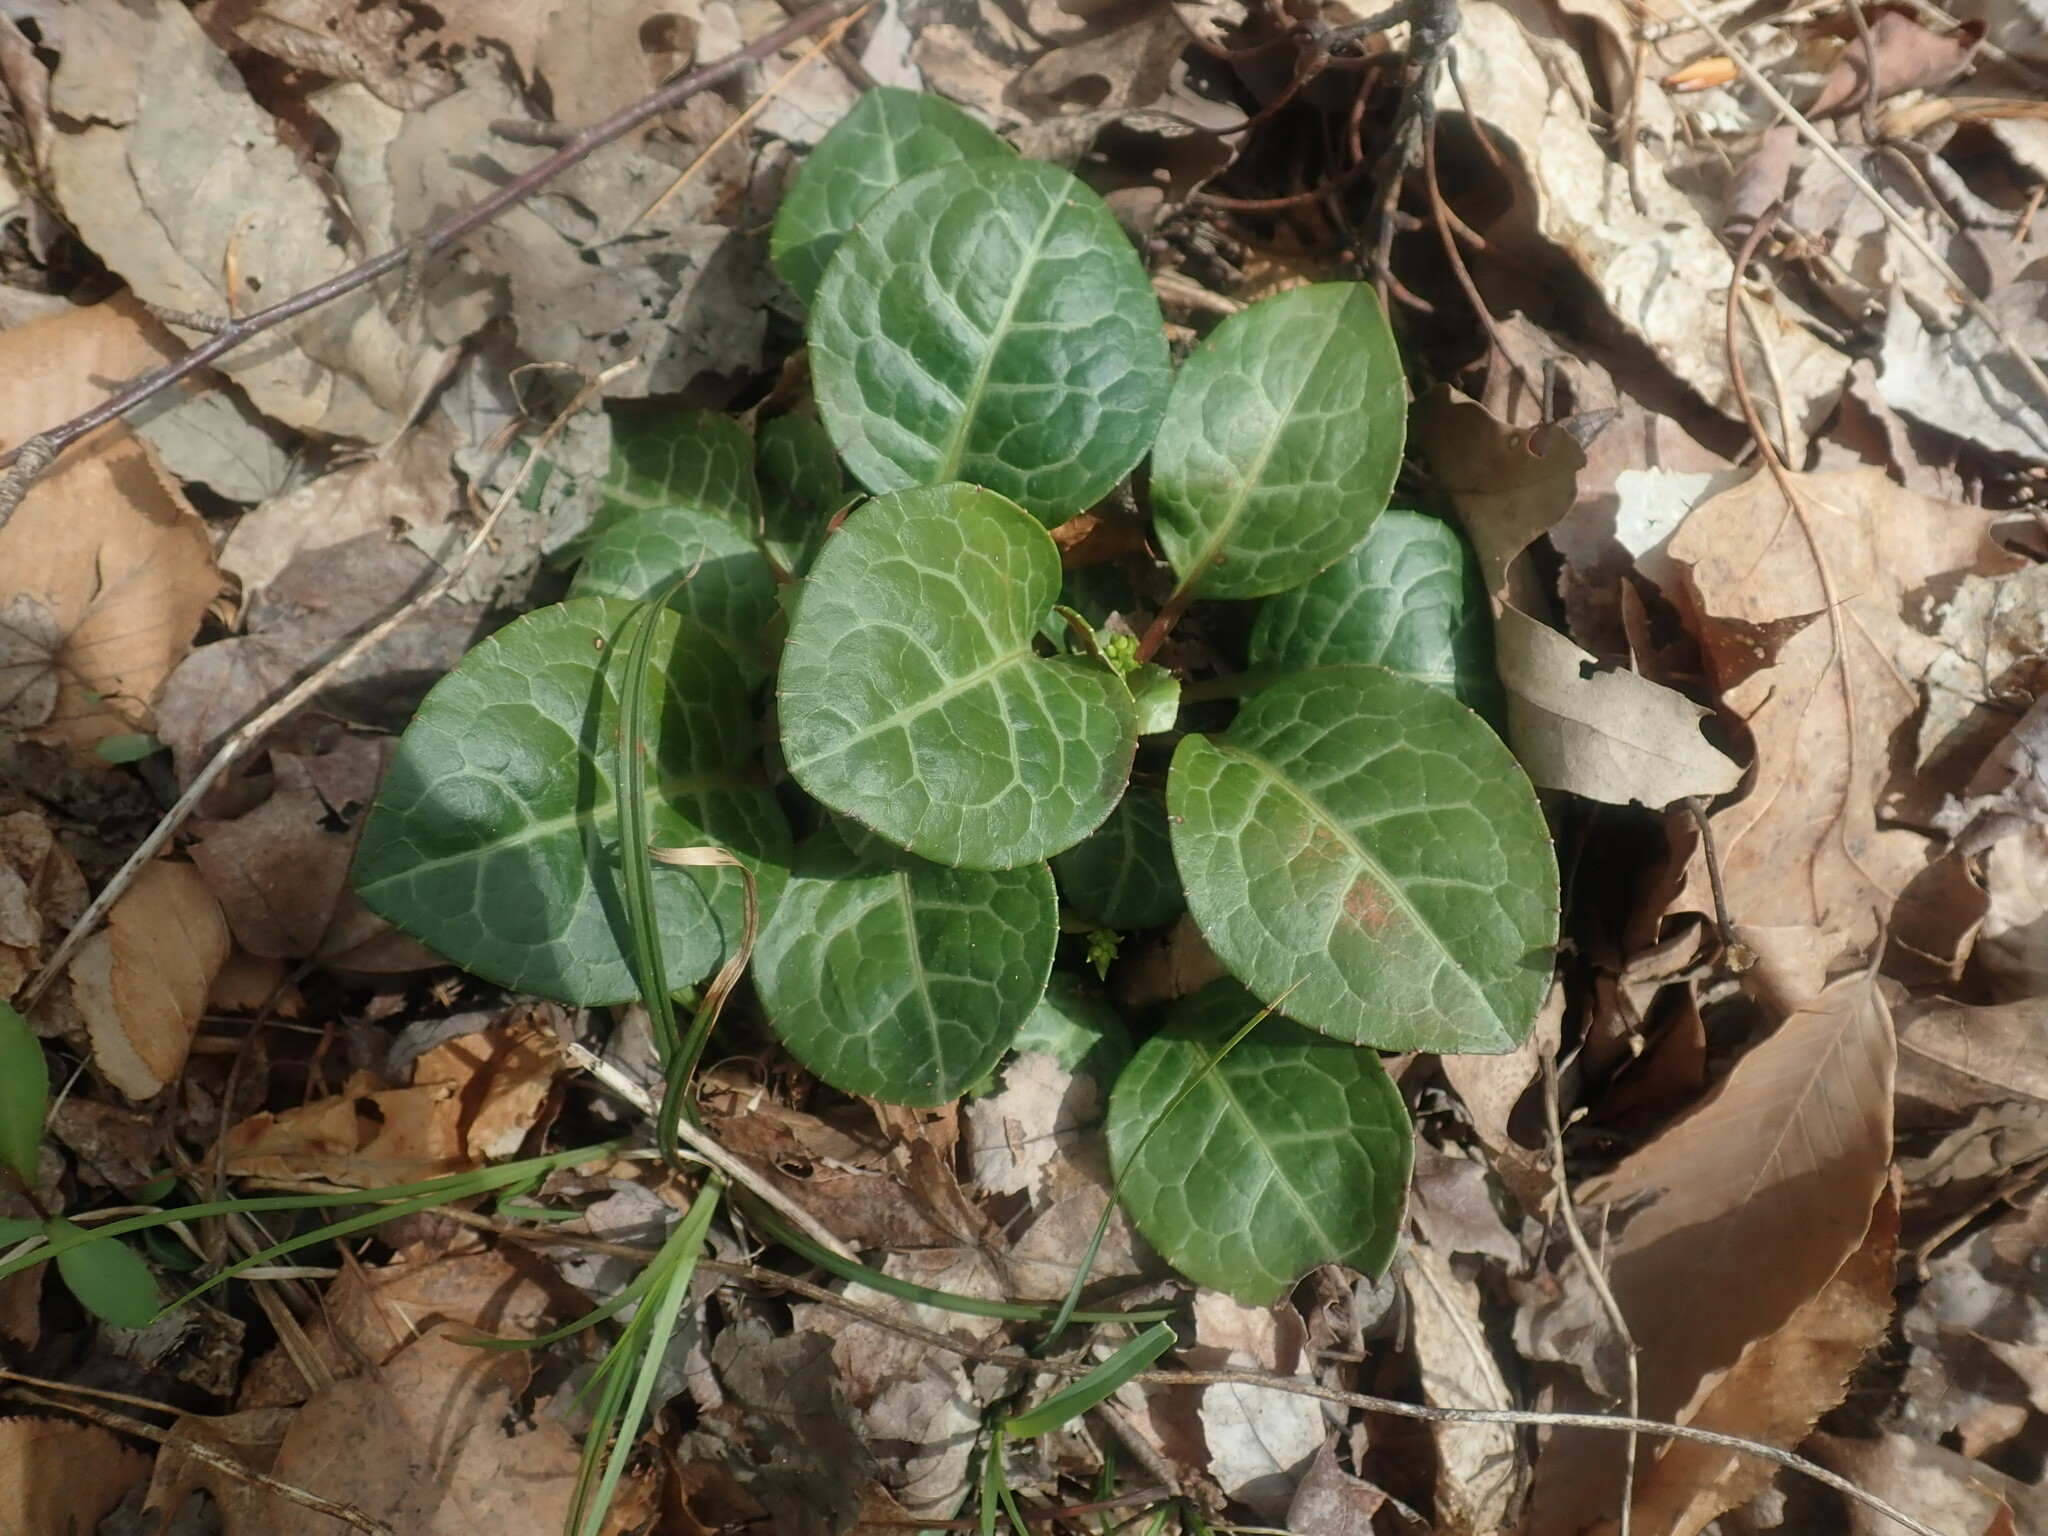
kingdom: Plantae
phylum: Tracheophyta
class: Magnoliopsida
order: Ericales
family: Ericaceae
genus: Pyrola
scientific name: Pyrola americana
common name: American wintergreen
